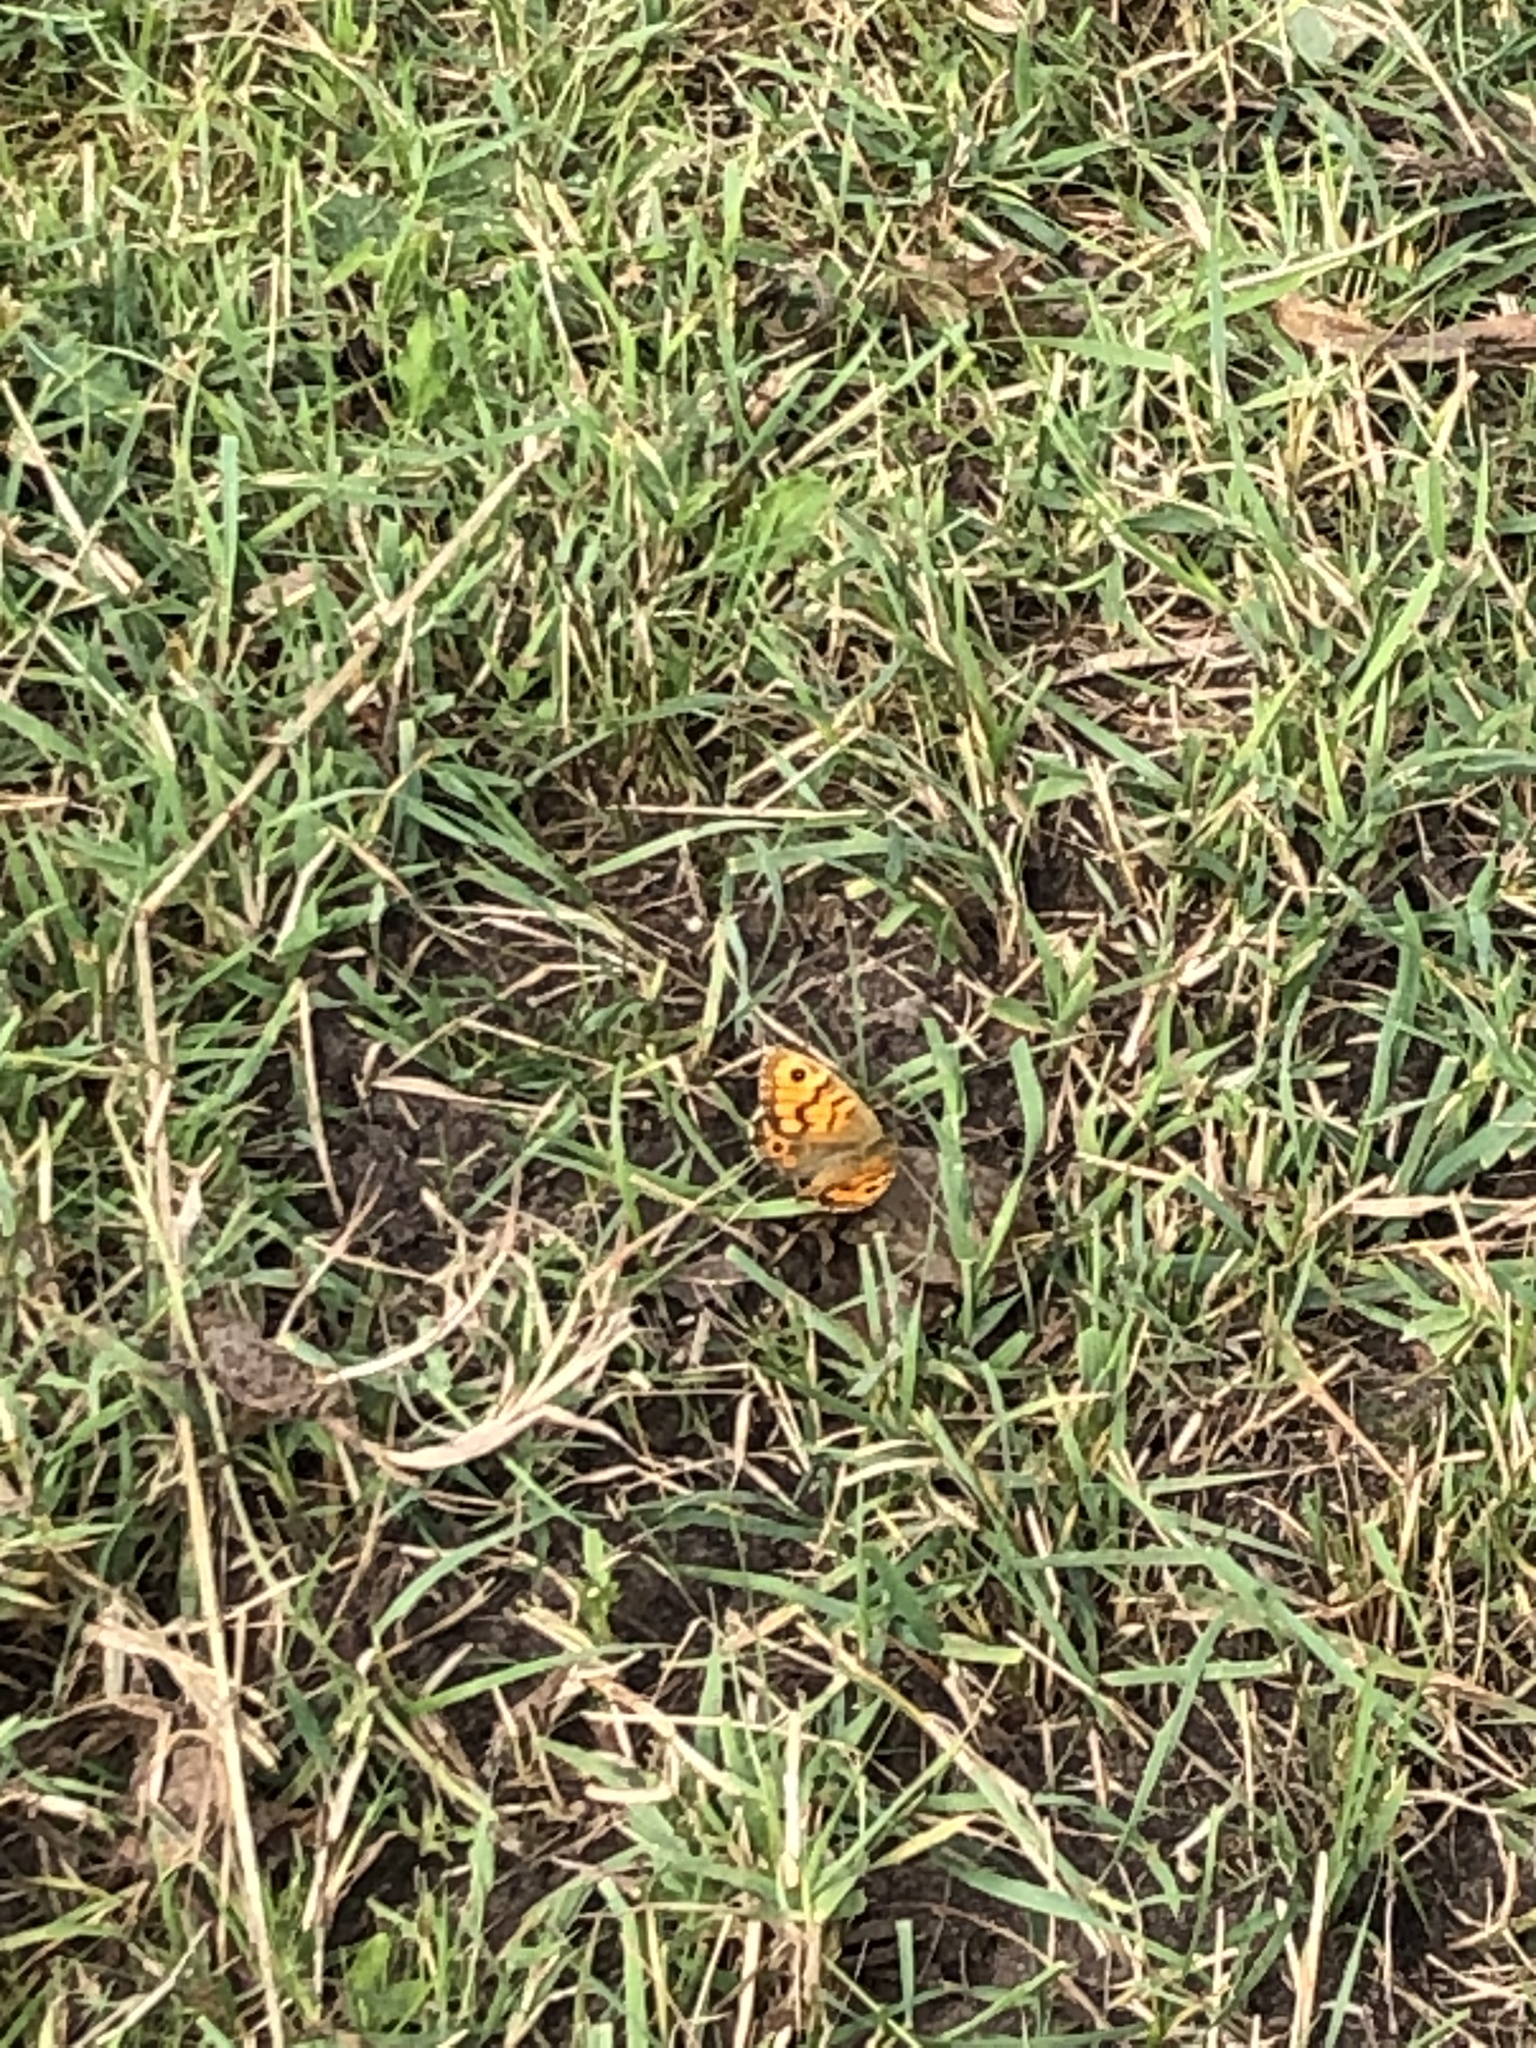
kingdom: Animalia
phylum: Arthropoda
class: Insecta
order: Lepidoptera
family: Nymphalidae
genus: Pararge
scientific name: Pararge Lasiommata megera
